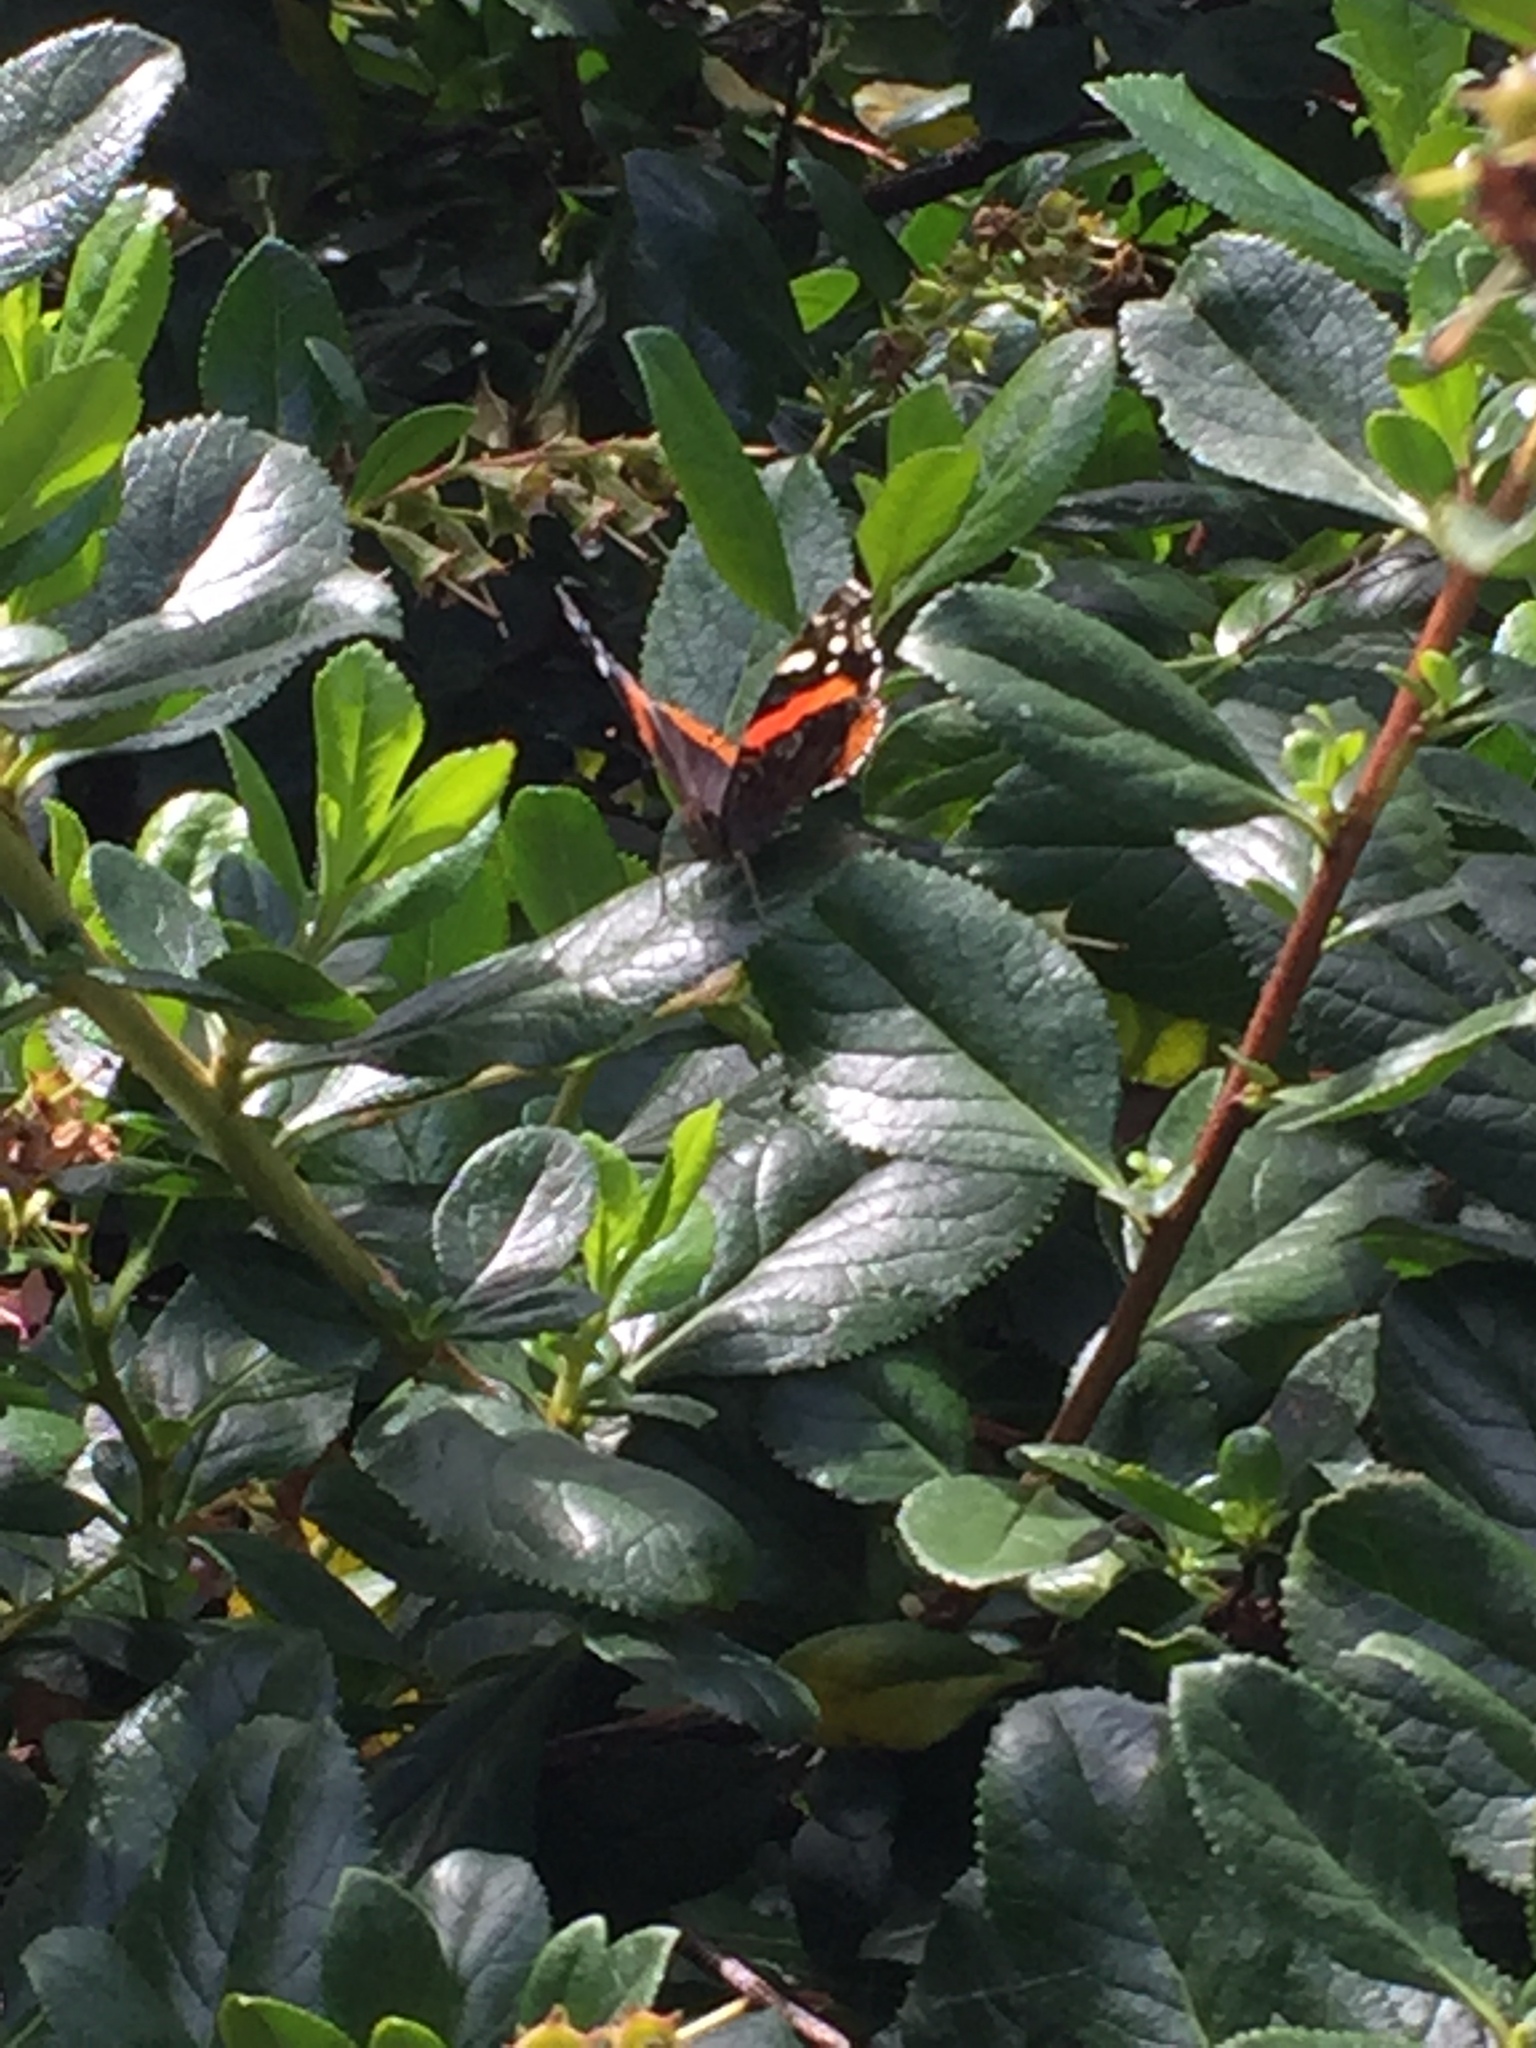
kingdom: Animalia
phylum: Arthropoda
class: Insecta
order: Lepidoptera
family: Nymphalidae
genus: Vanessa
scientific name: Vanessa atalanta
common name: Red admiral
